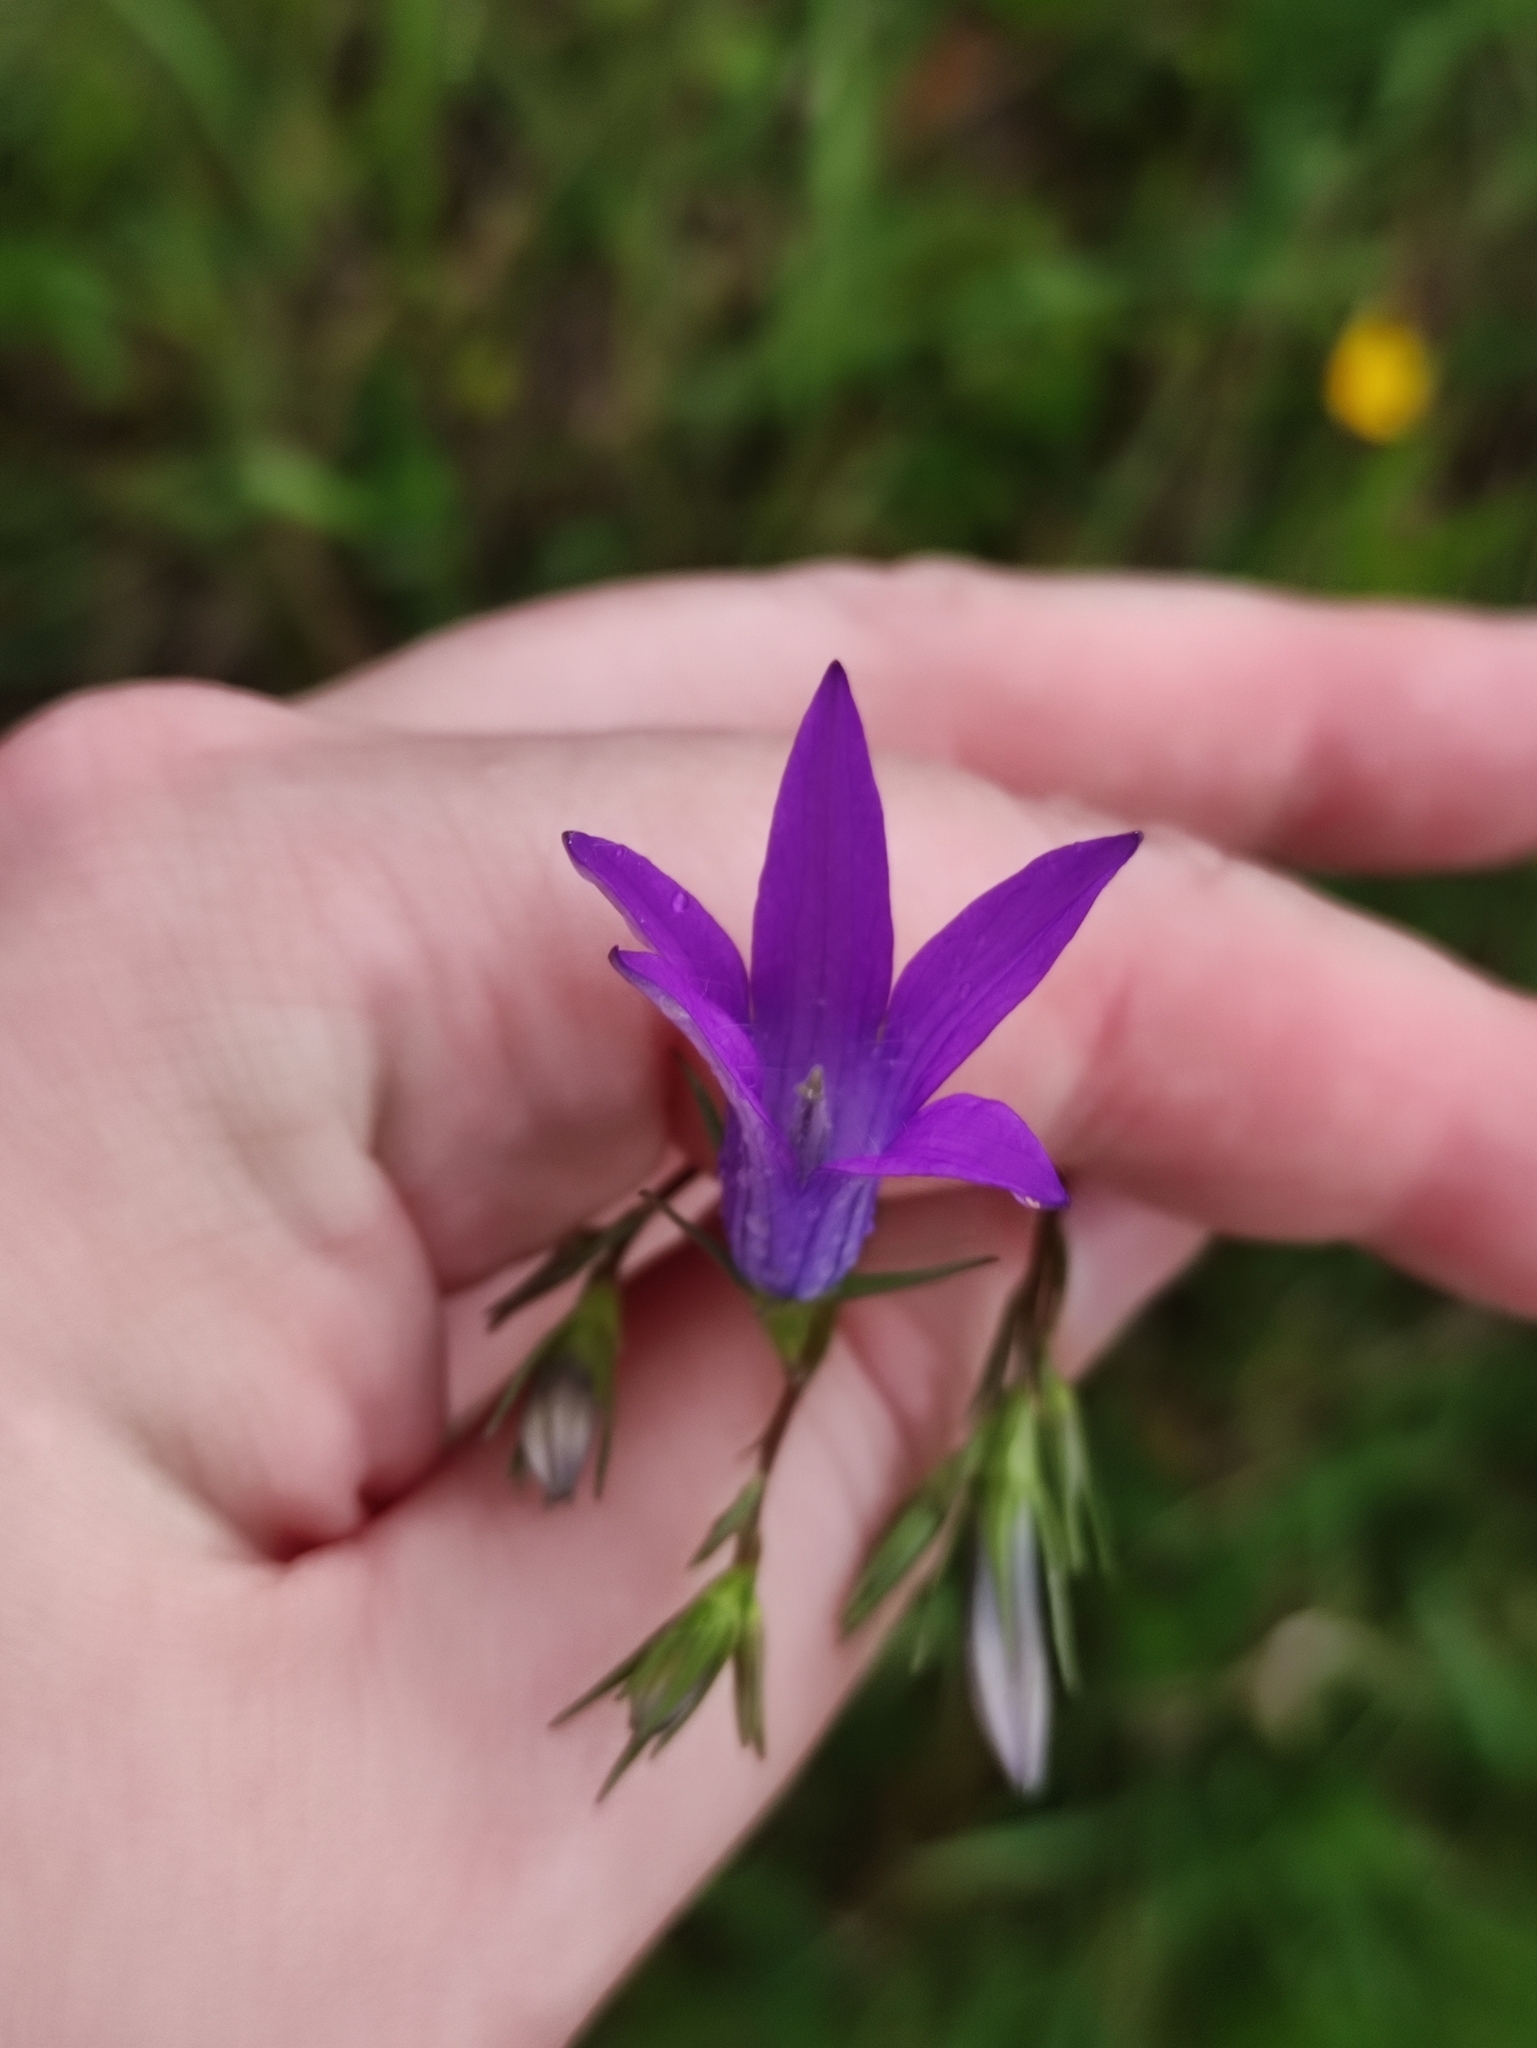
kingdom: Plantae
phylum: Tracheophyta
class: Magnoliopsida
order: Asterales
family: Campanulaceae
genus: Campanula
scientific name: Campanula patula
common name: Spreading bellflower
